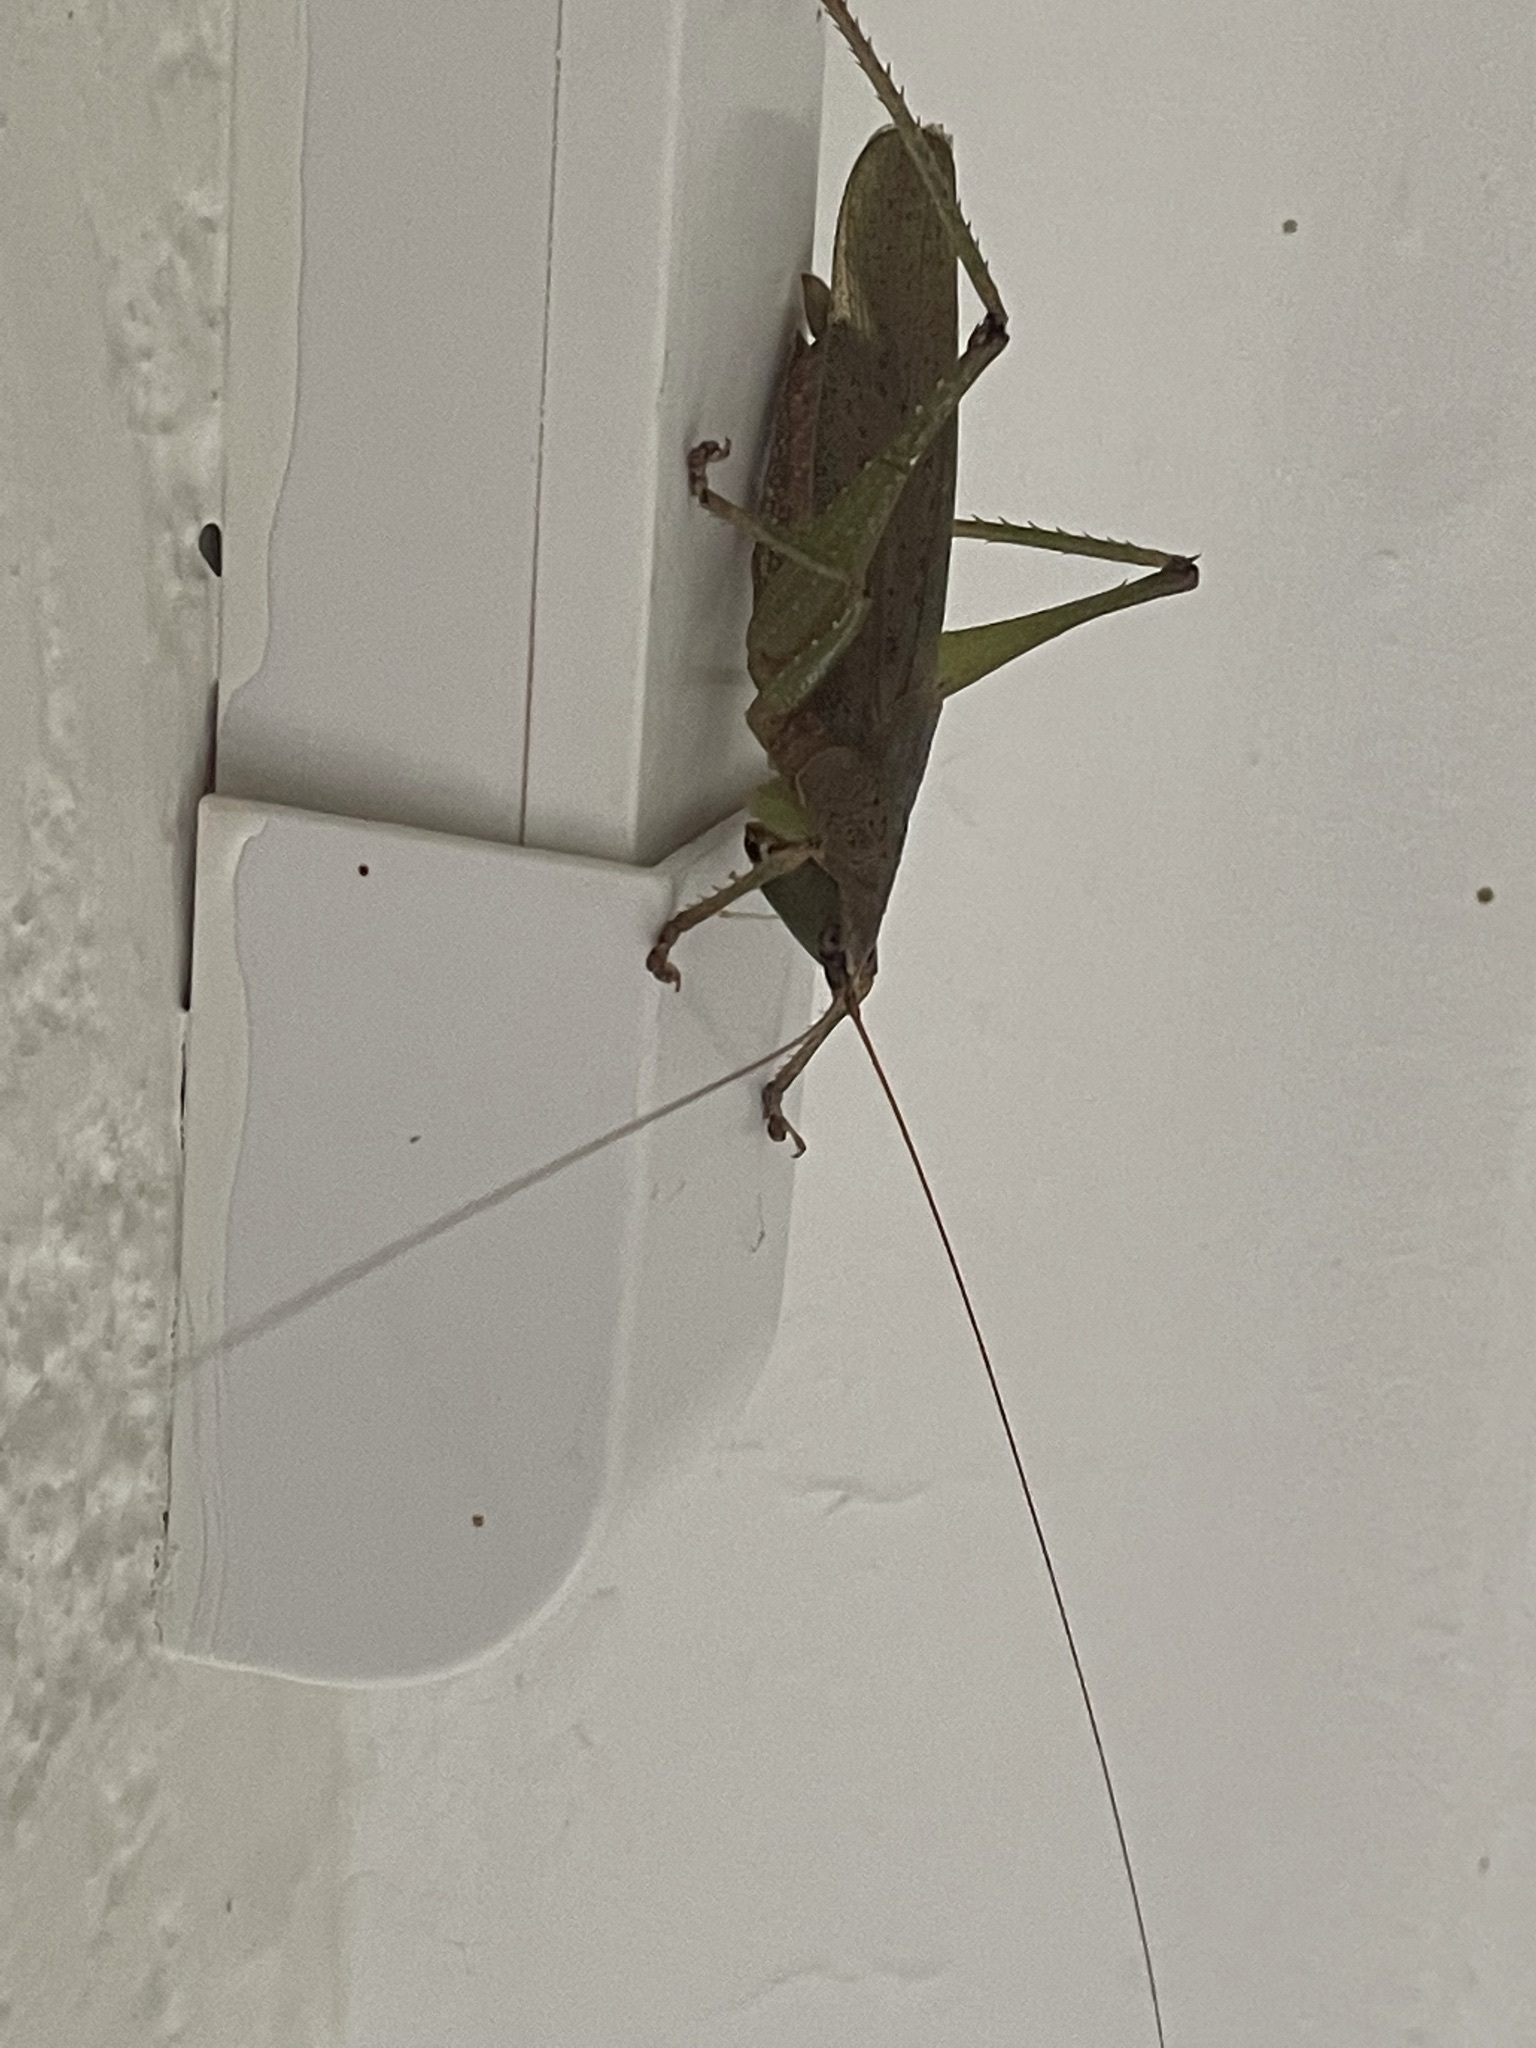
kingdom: Animalia
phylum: Arthropoda
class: Insecta
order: Orthoptera
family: Tettigoniidae
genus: Austrosalomona
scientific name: Austrosalomona falcata
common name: Olive-green coastal katydid
